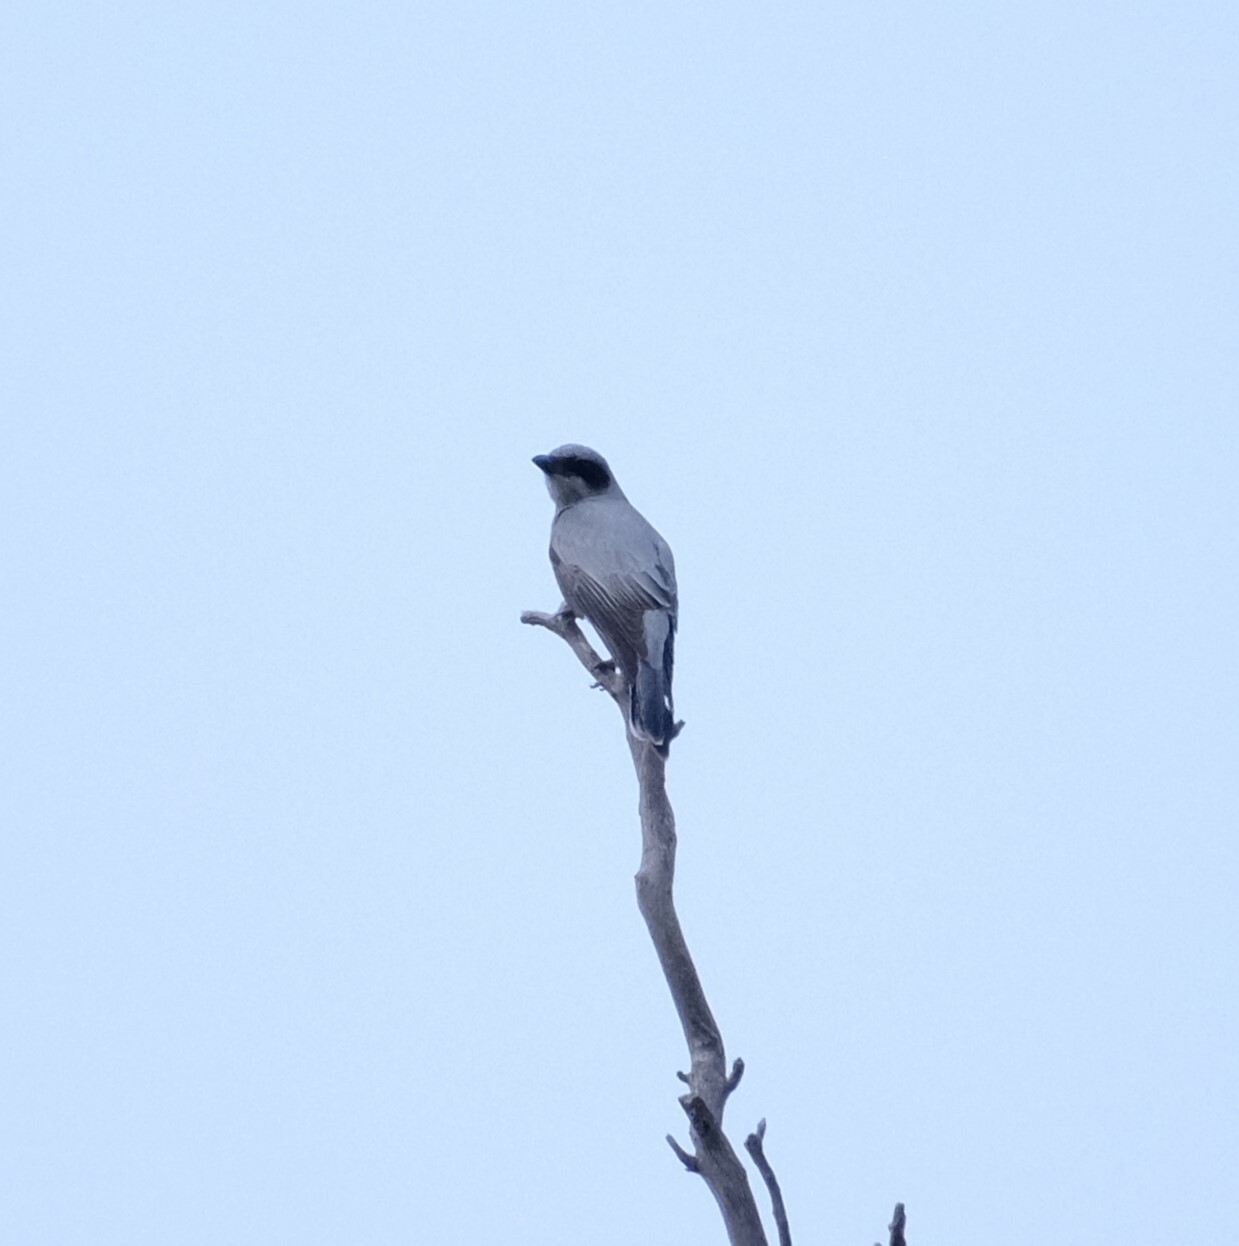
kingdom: Animalia
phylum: Chordata
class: Aves
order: Passeriformes
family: Campephagidae
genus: Coracina
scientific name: Coracina novaehollandiae
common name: Black-faced cuckooshrike
